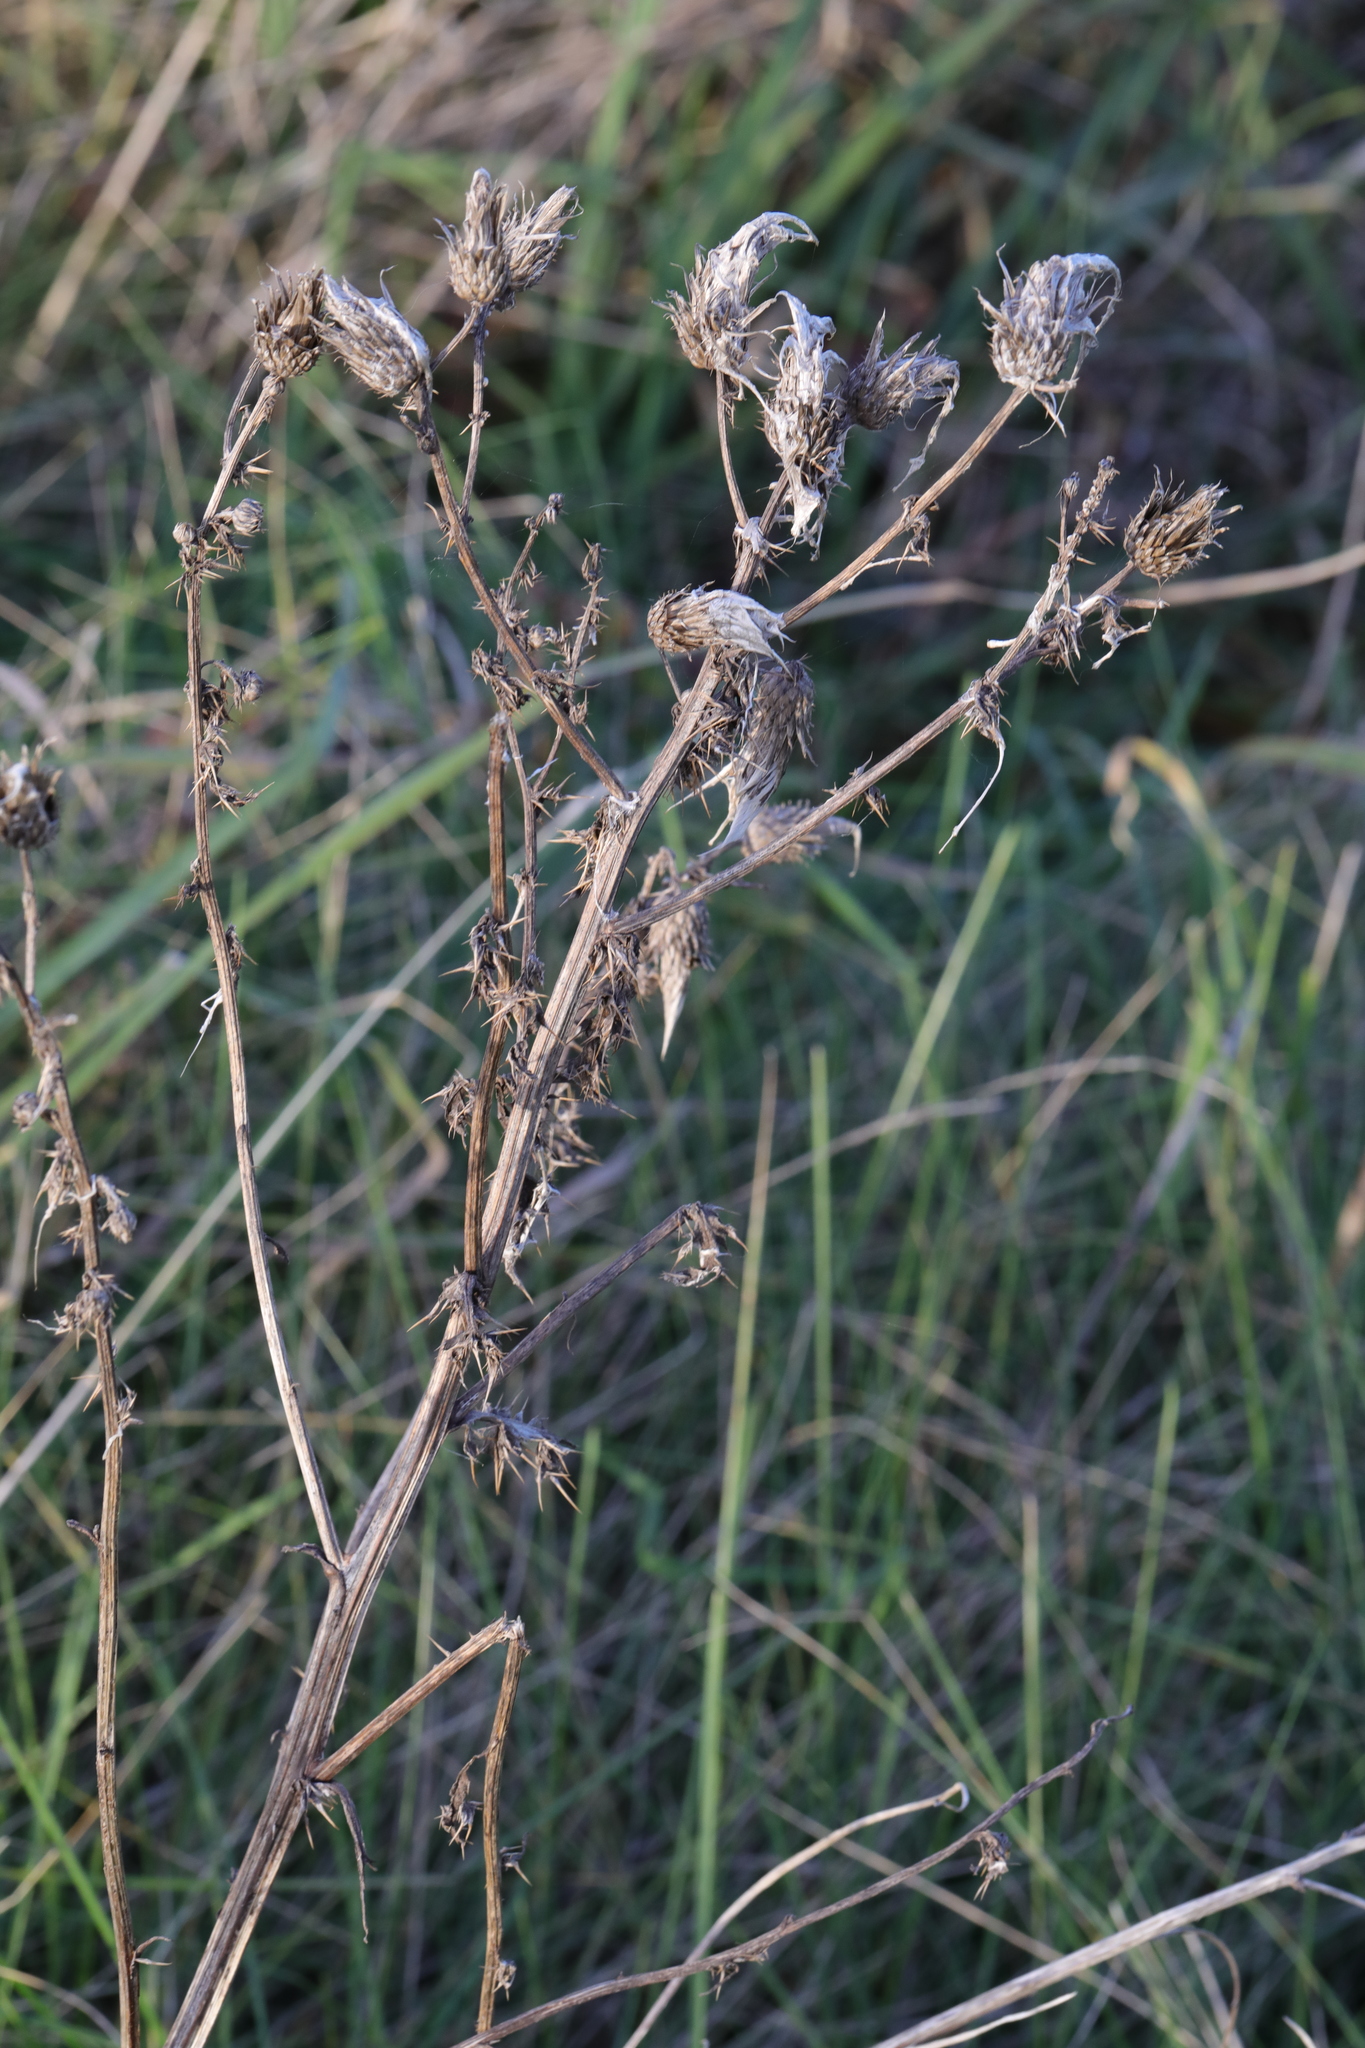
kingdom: Plantae
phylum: Tracheophyta
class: Magnoliopsida
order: Asterales
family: Asteraceae
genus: Cirsium
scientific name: Cirsium arvense
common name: Creeping thistle
